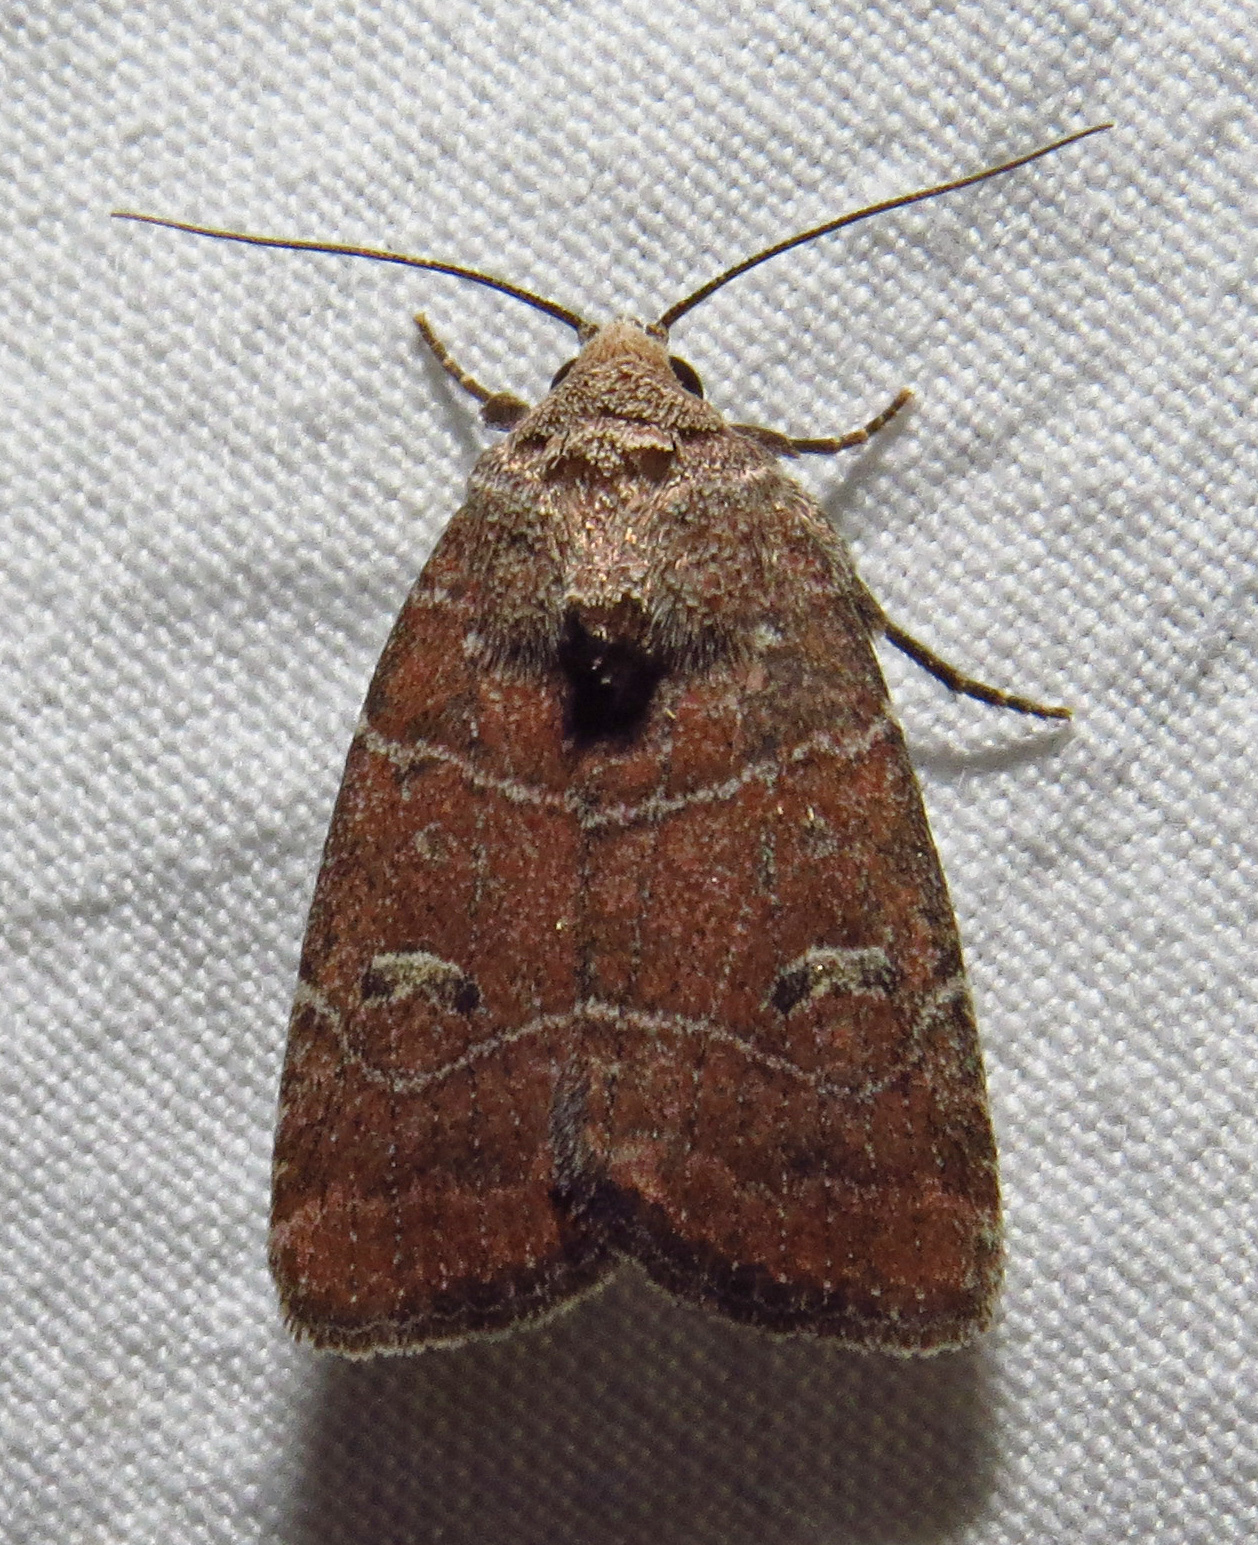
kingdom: Animalia
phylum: Arthropoda
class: Insecta
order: Lepidoptera
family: Noctuidae
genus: Elaphria
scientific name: Elaphria grata
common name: Grateful midget moth
